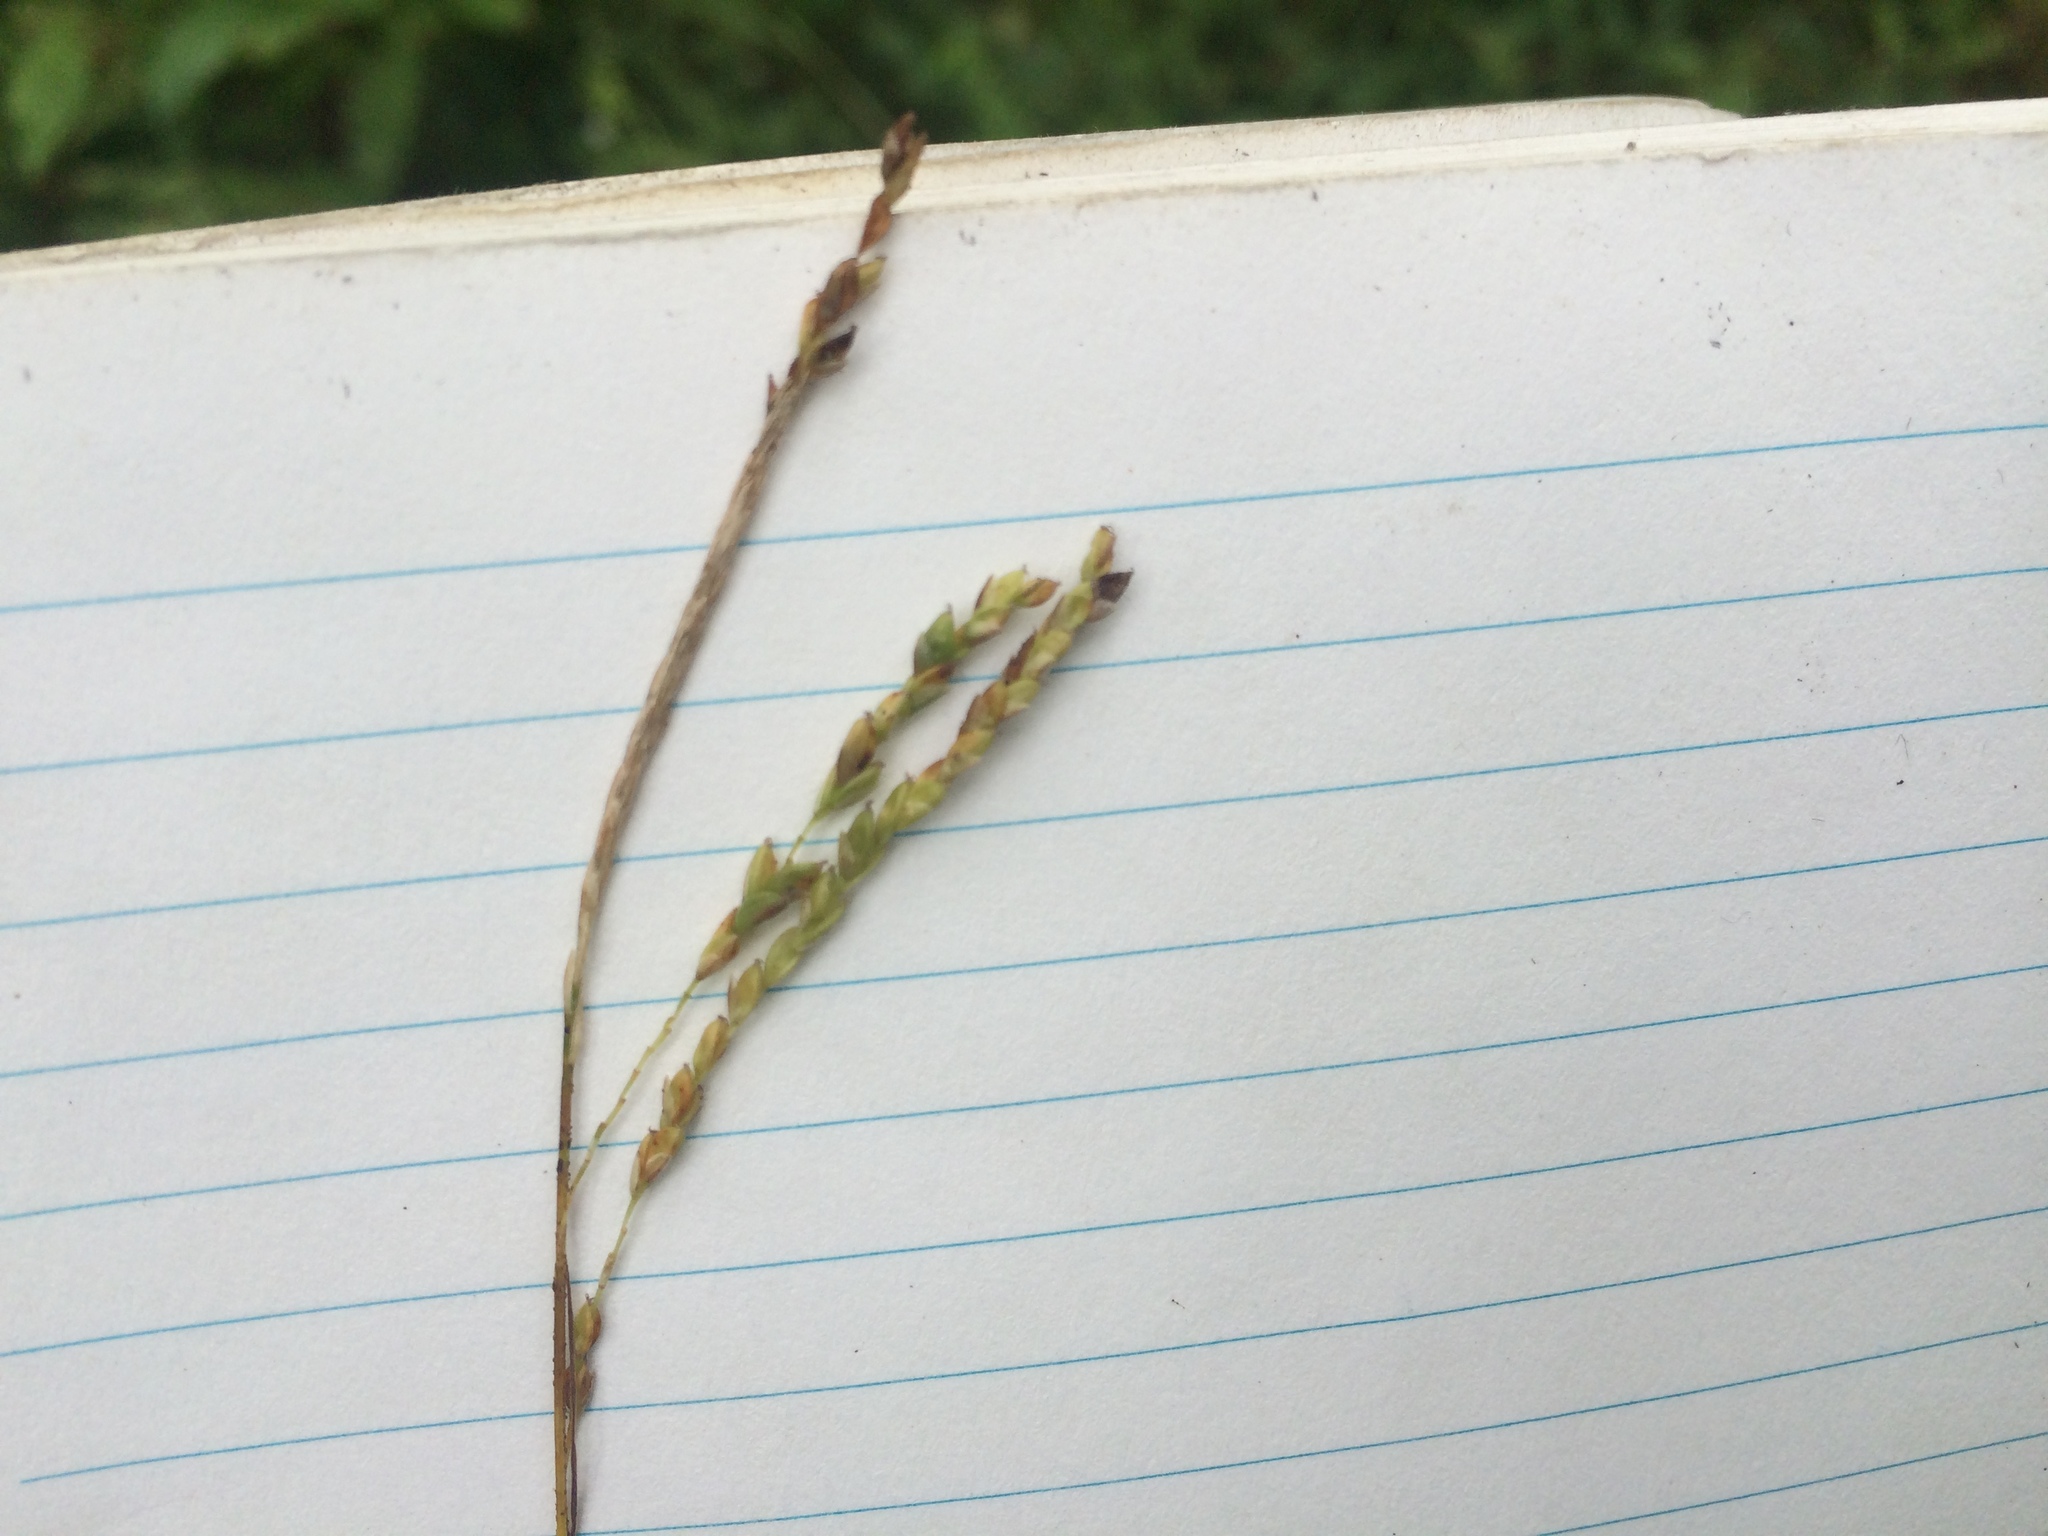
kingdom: Plantae
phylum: Tracheophyta
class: Liliopsida
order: Poales
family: Cyperaceae
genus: Carex
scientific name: Carex gracillima
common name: Graceful sedge
